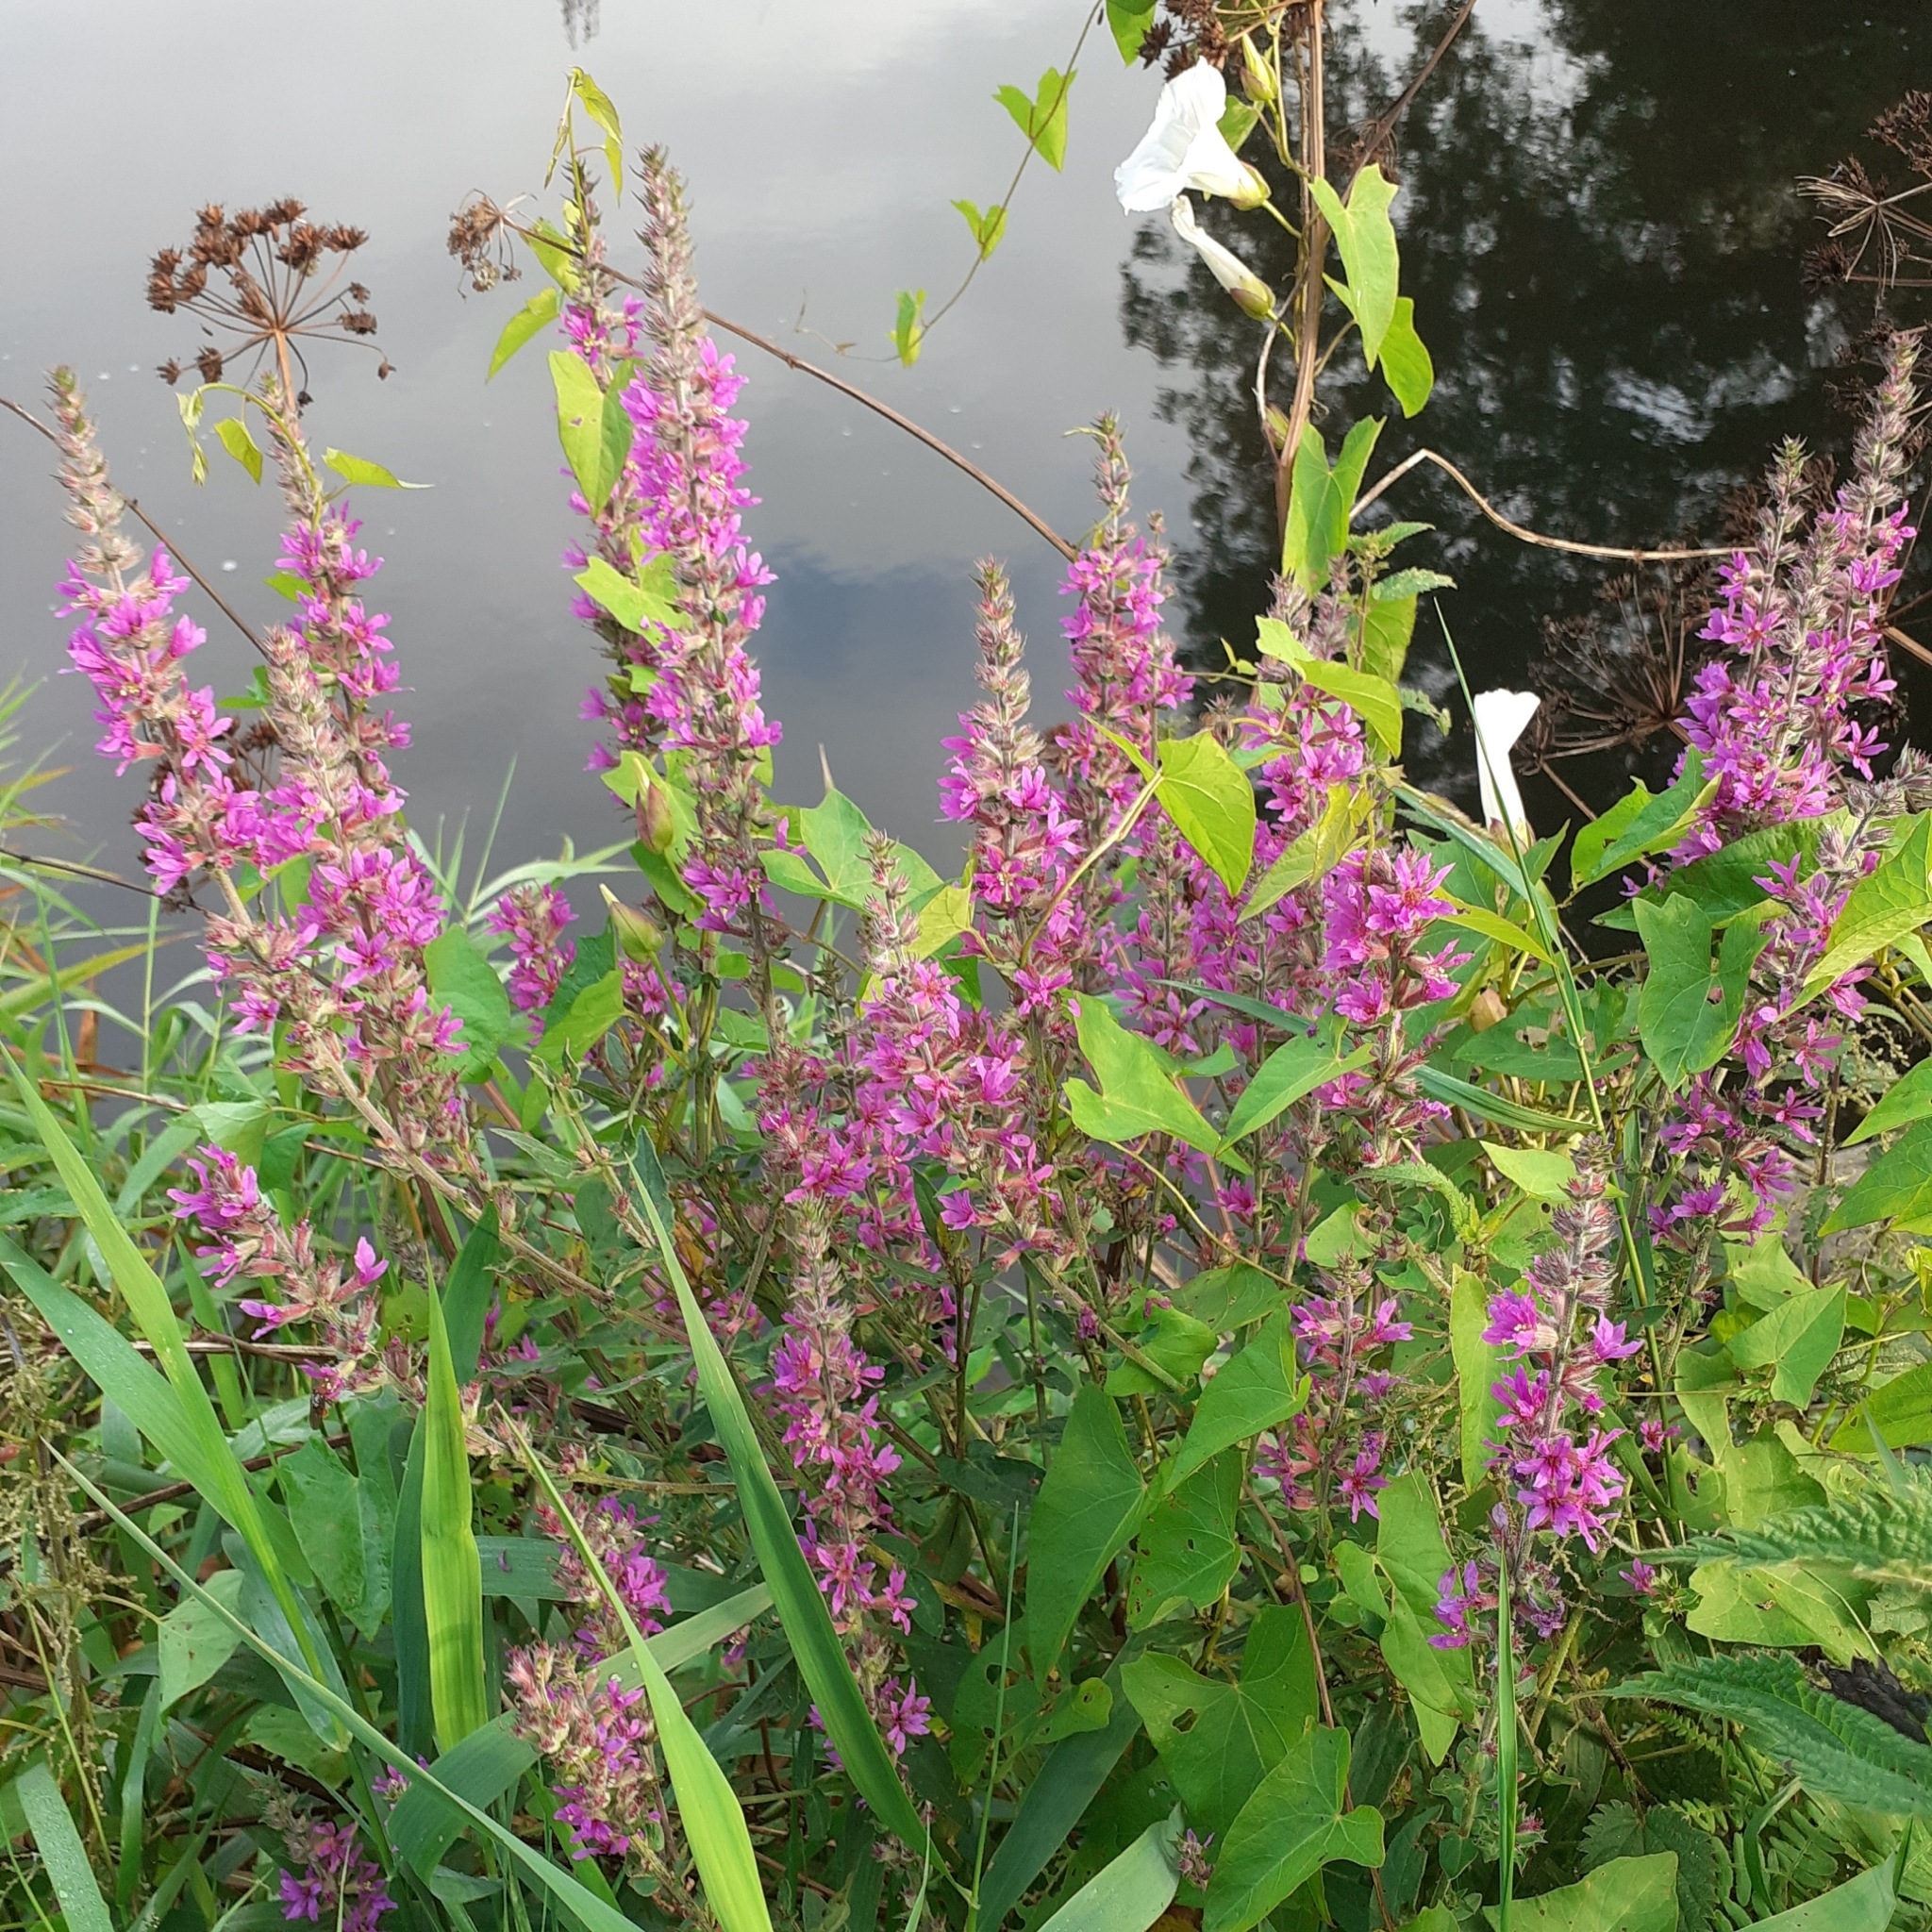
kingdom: Plantae
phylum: Tracheophyta
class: Magnoliopsida
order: Myrtales
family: Lythraceae
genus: Lythrum
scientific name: Lythrum salicaria
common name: Purple loosestrife
